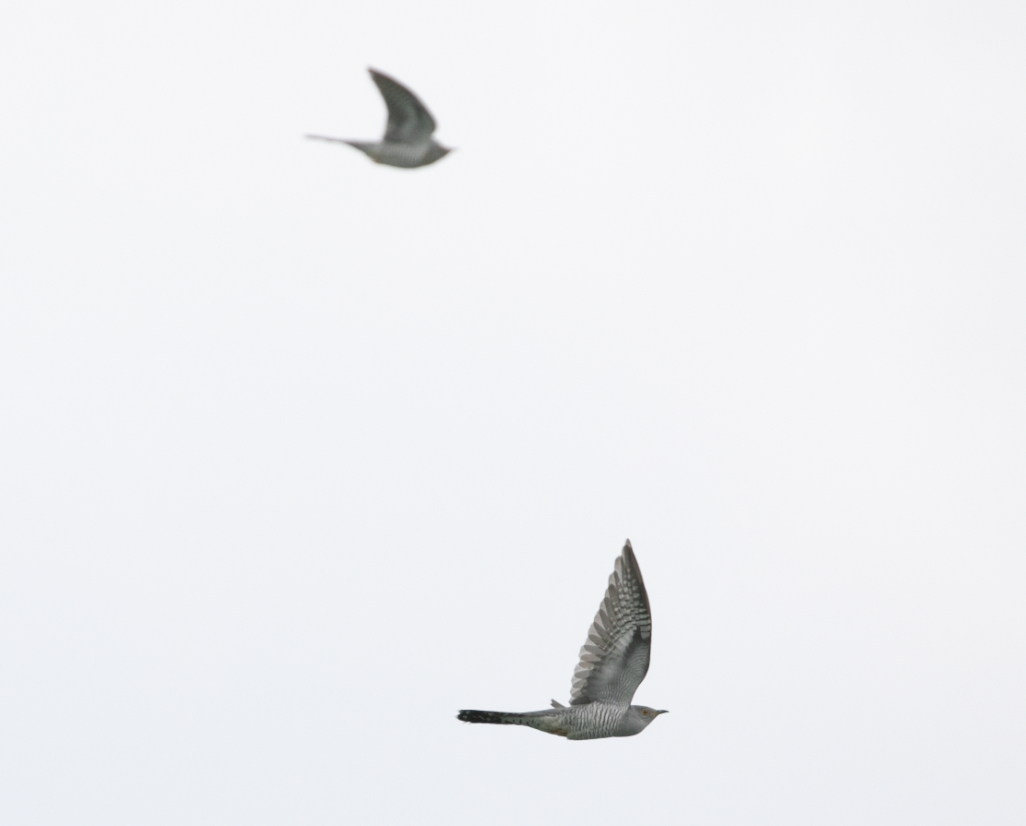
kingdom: Animalia
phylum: Chordata
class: Aves
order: Cuculiformes
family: Cuculidae
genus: Cuculus
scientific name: Cuculus canorus
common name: Common cuckoo
